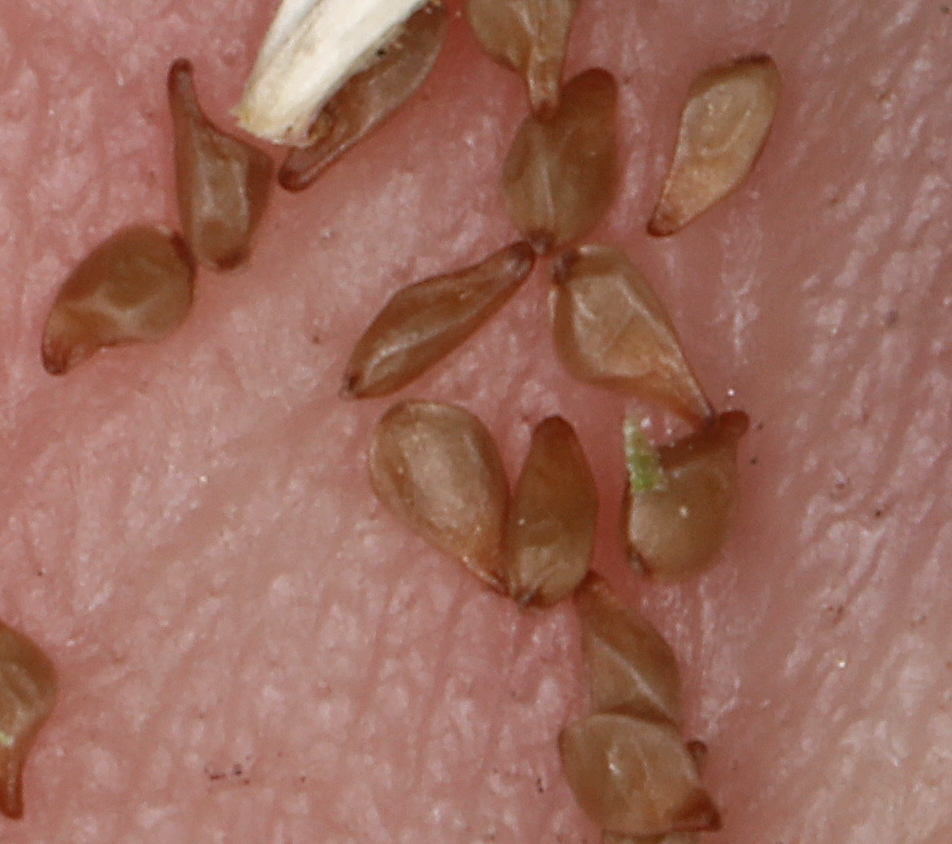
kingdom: Plantae
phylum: Tracheophyta
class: Magnoliopsida
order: Myrtales
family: Onagraceae
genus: Chylismia
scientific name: Chylismia claviformis
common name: Browneyes
